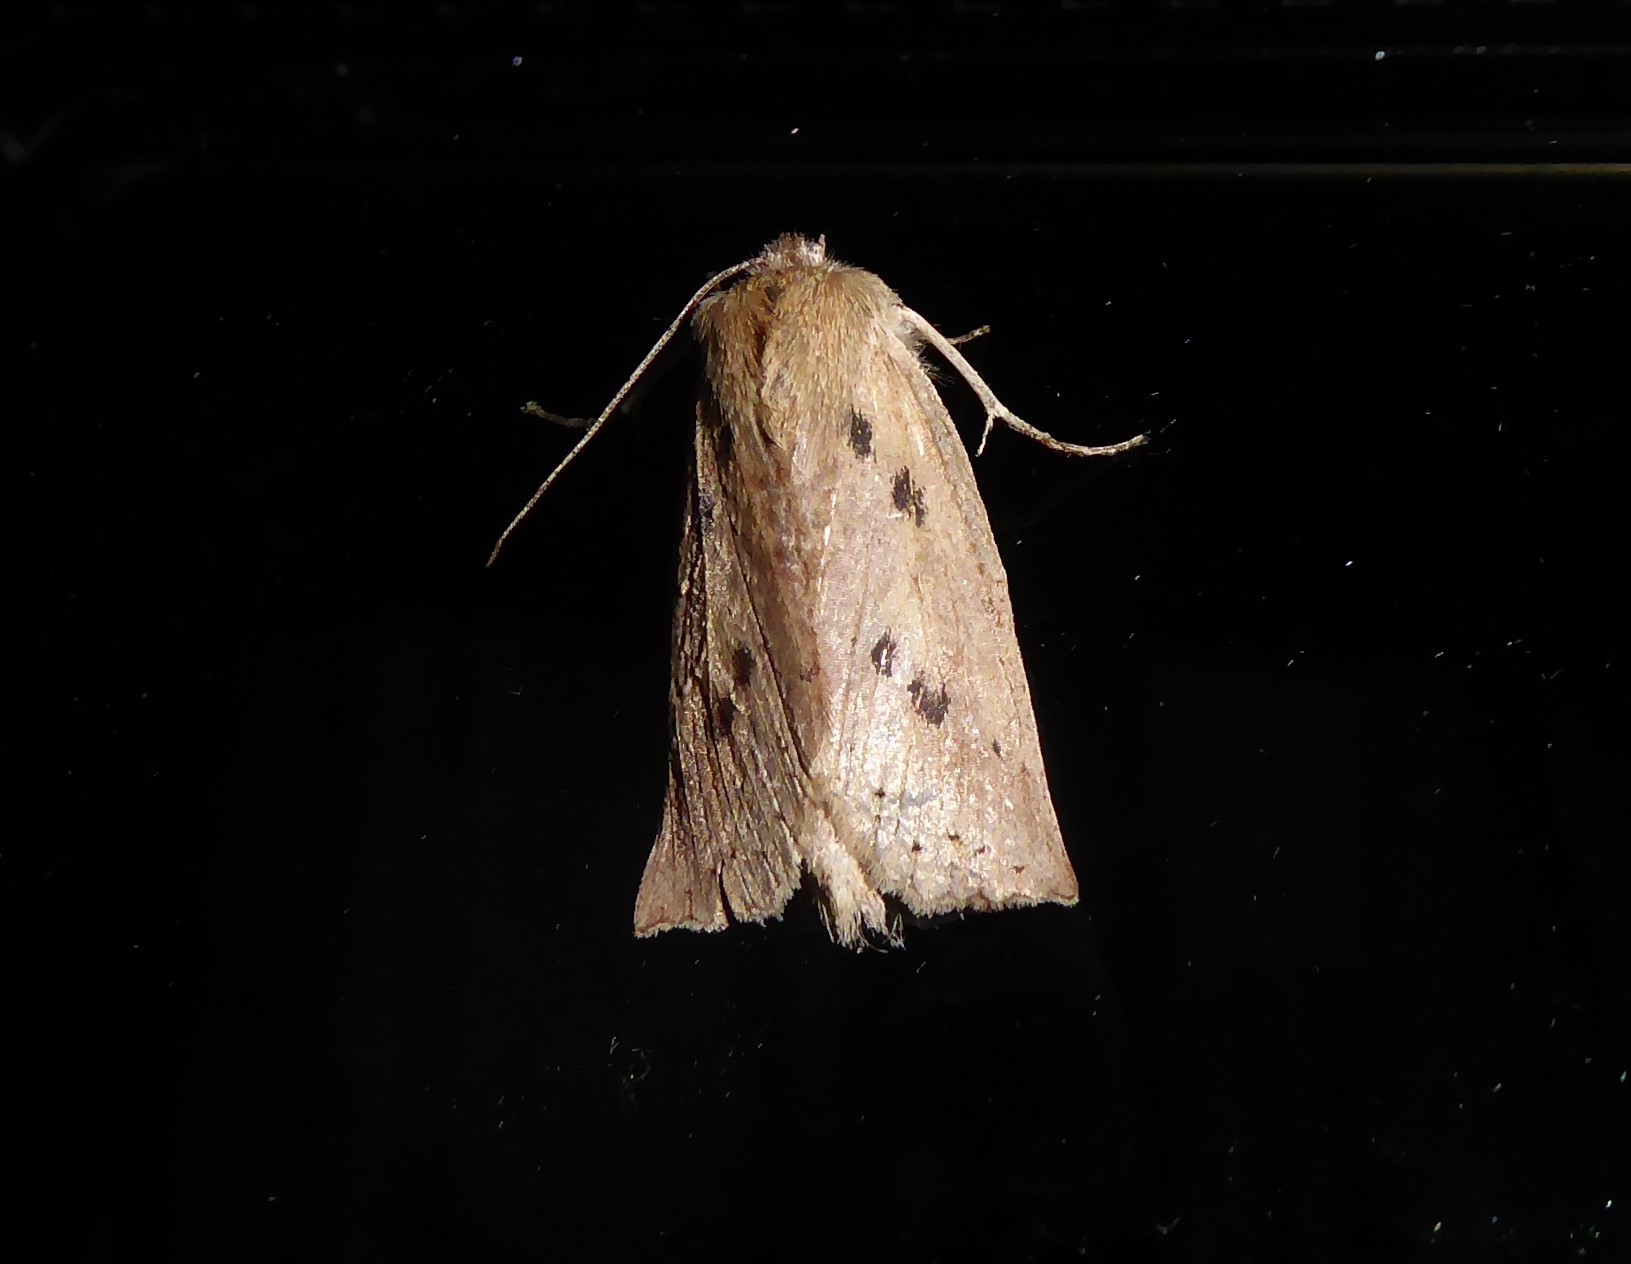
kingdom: Animalia
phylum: Arthropoda
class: Insecta
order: Lepidoptera
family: Geometridae
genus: Declana
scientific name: Declana leptomera
